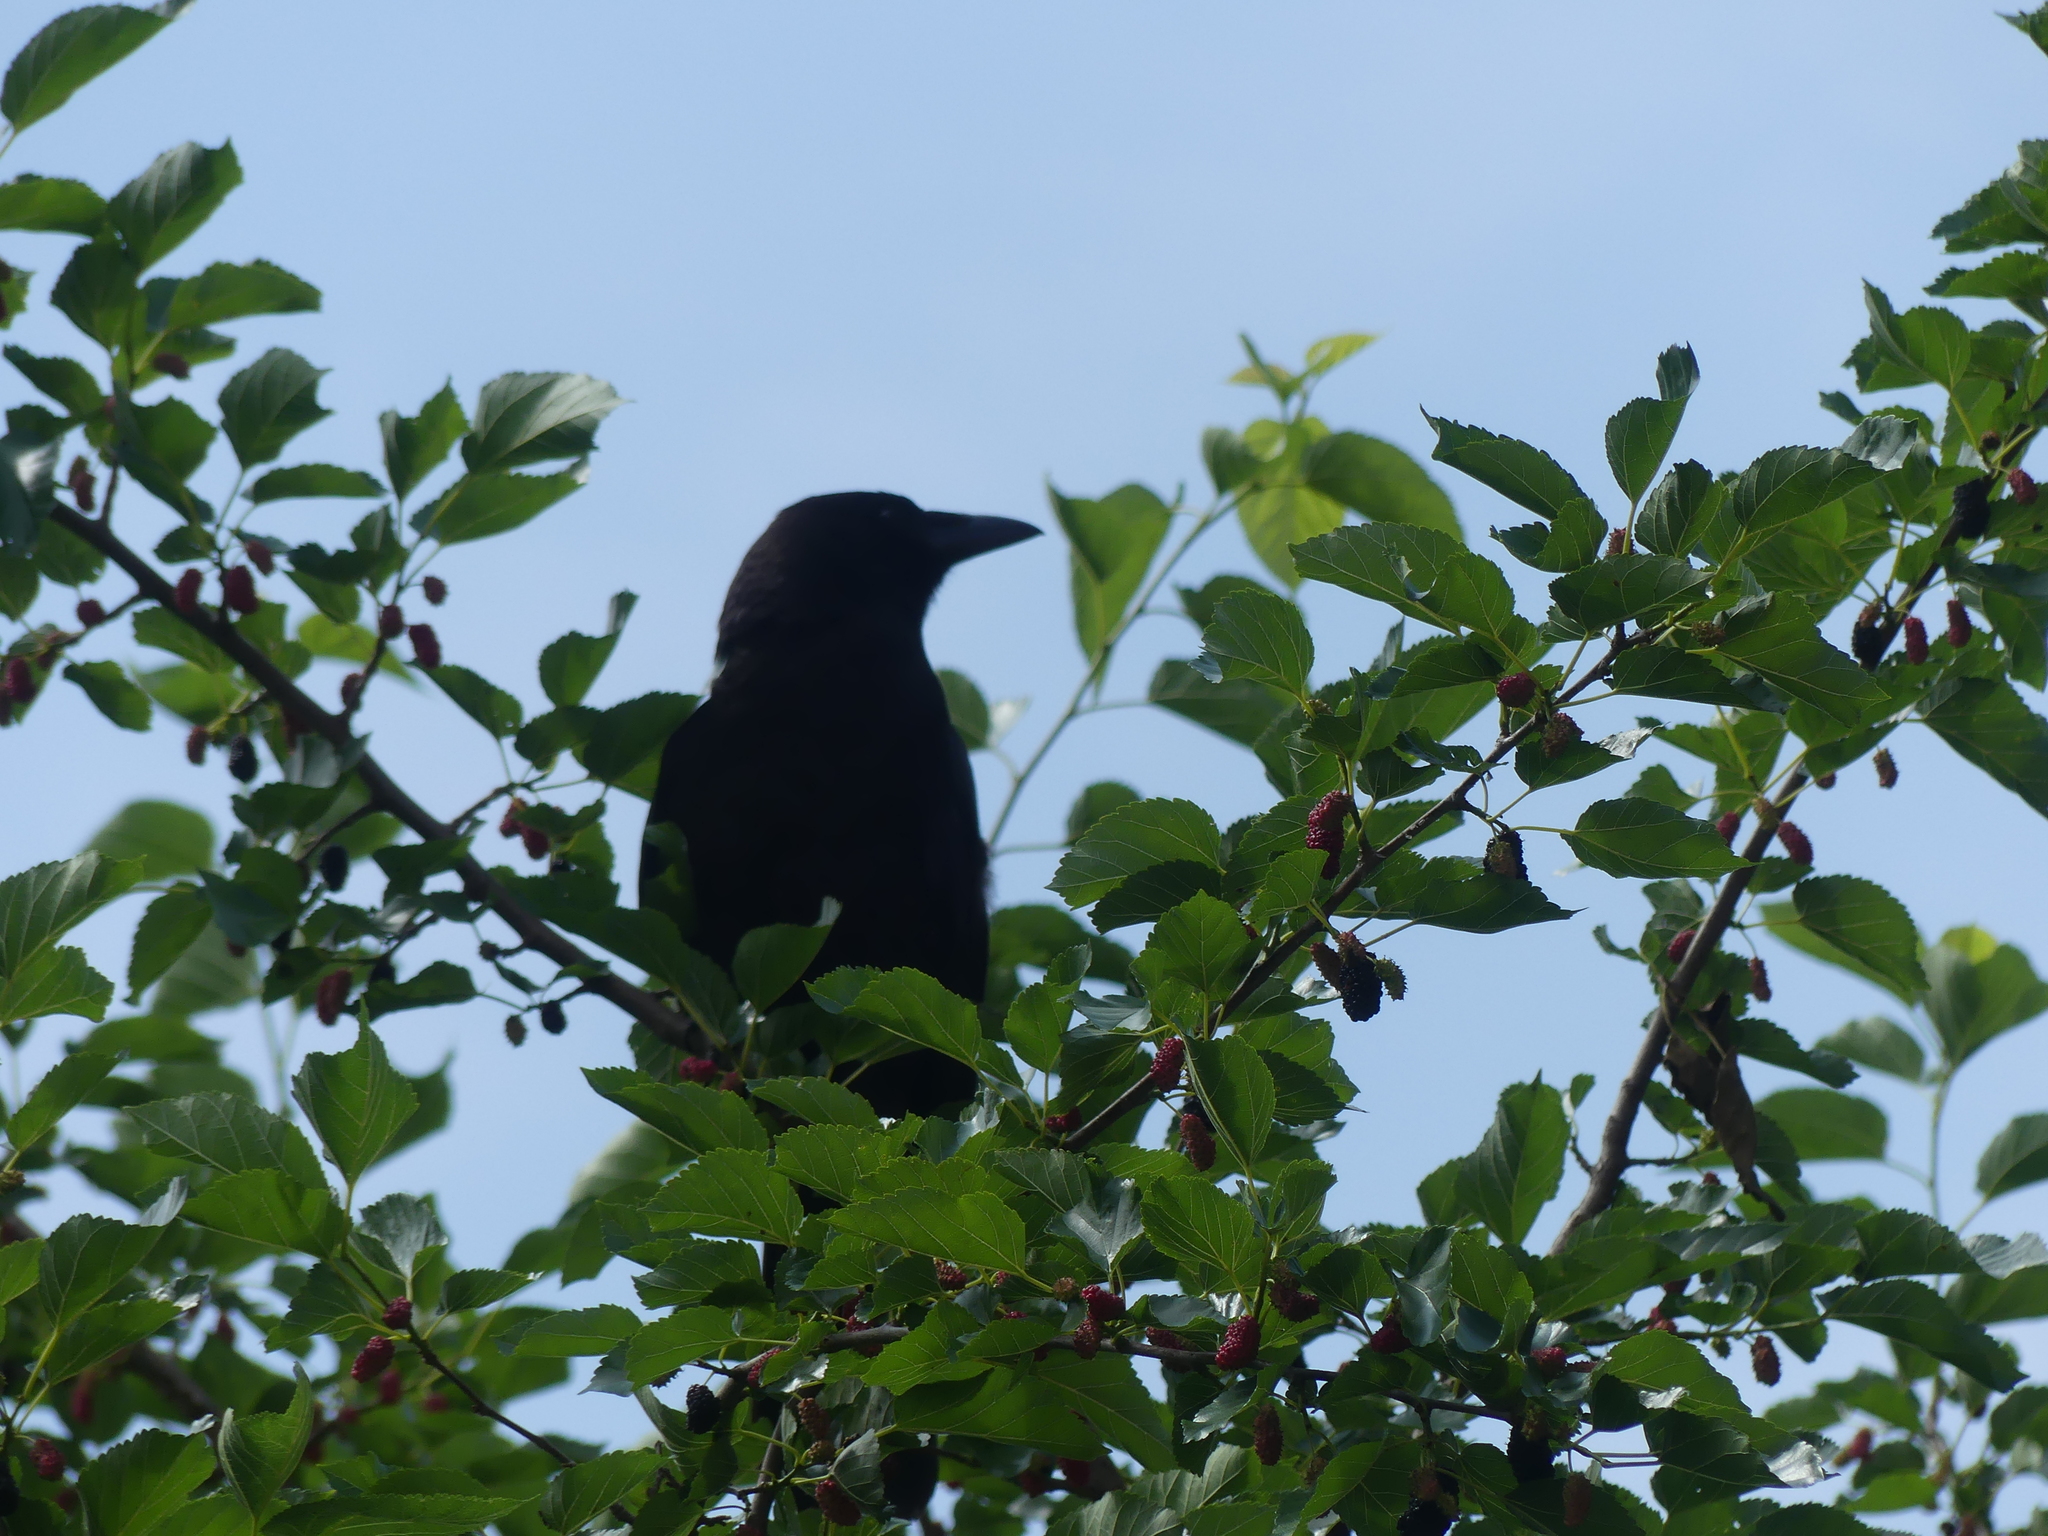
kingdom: Animalia
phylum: Chordata
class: Aves
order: Passeriformes
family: Corvidae
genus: Corvus
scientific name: Corvus brachyrhynchos
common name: American crow
